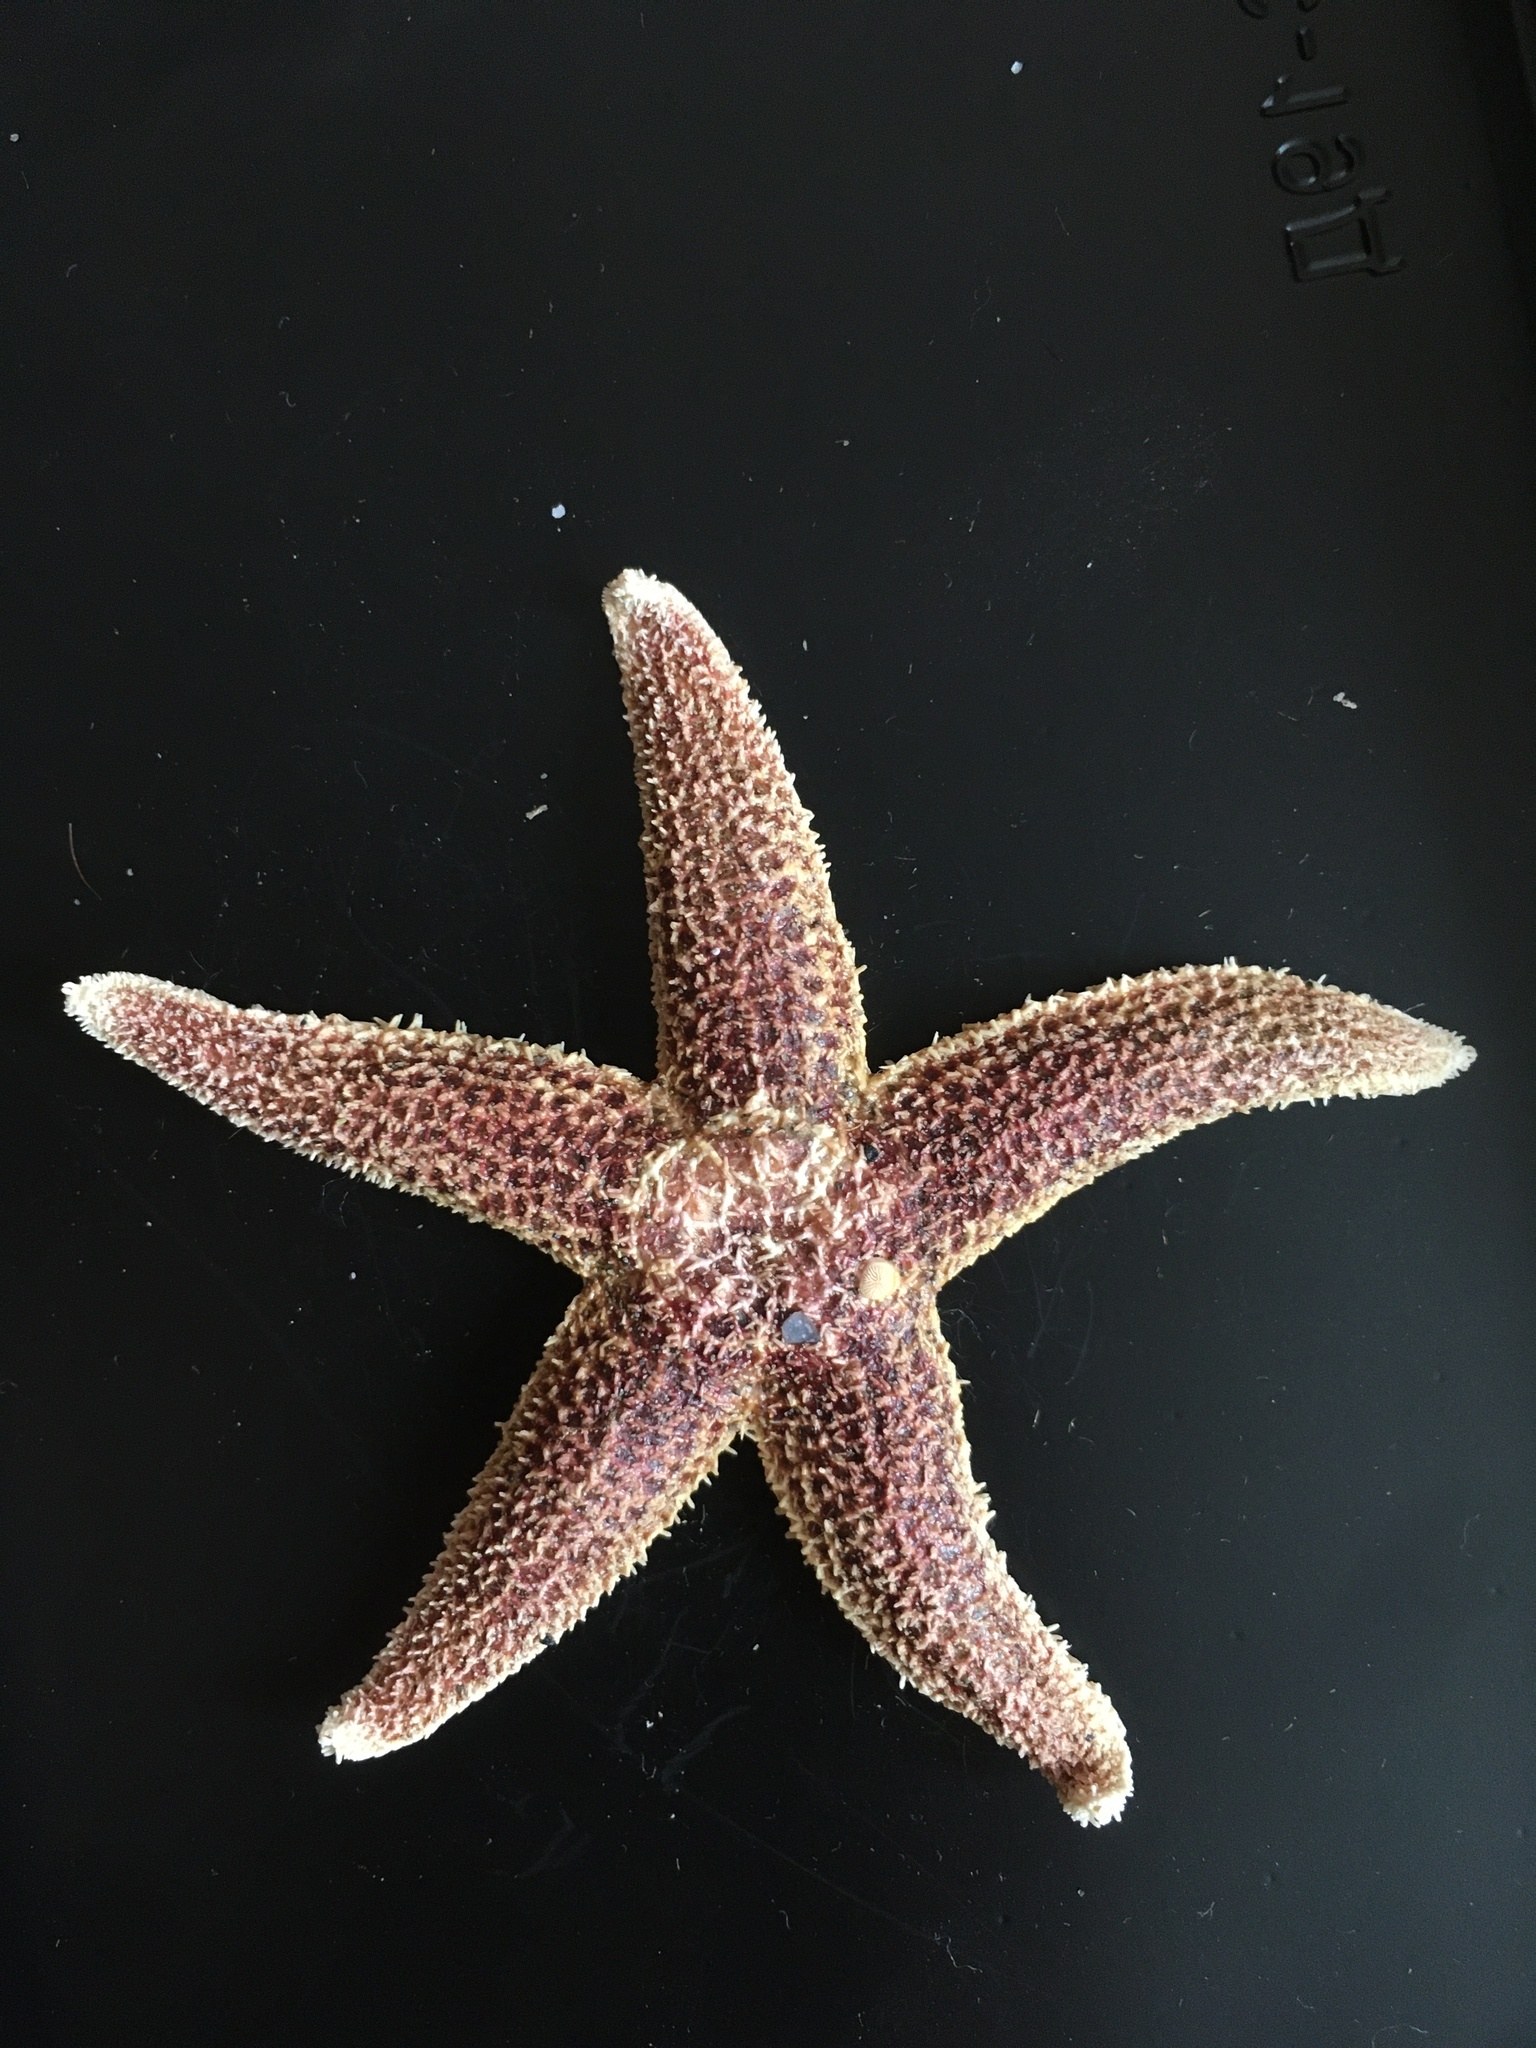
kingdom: Animalia
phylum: Echinodermata
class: Asteroidea
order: Forcipulatida
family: Asteriidae
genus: Asterias
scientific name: Asterias amurensis
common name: Flat-bottomed star
